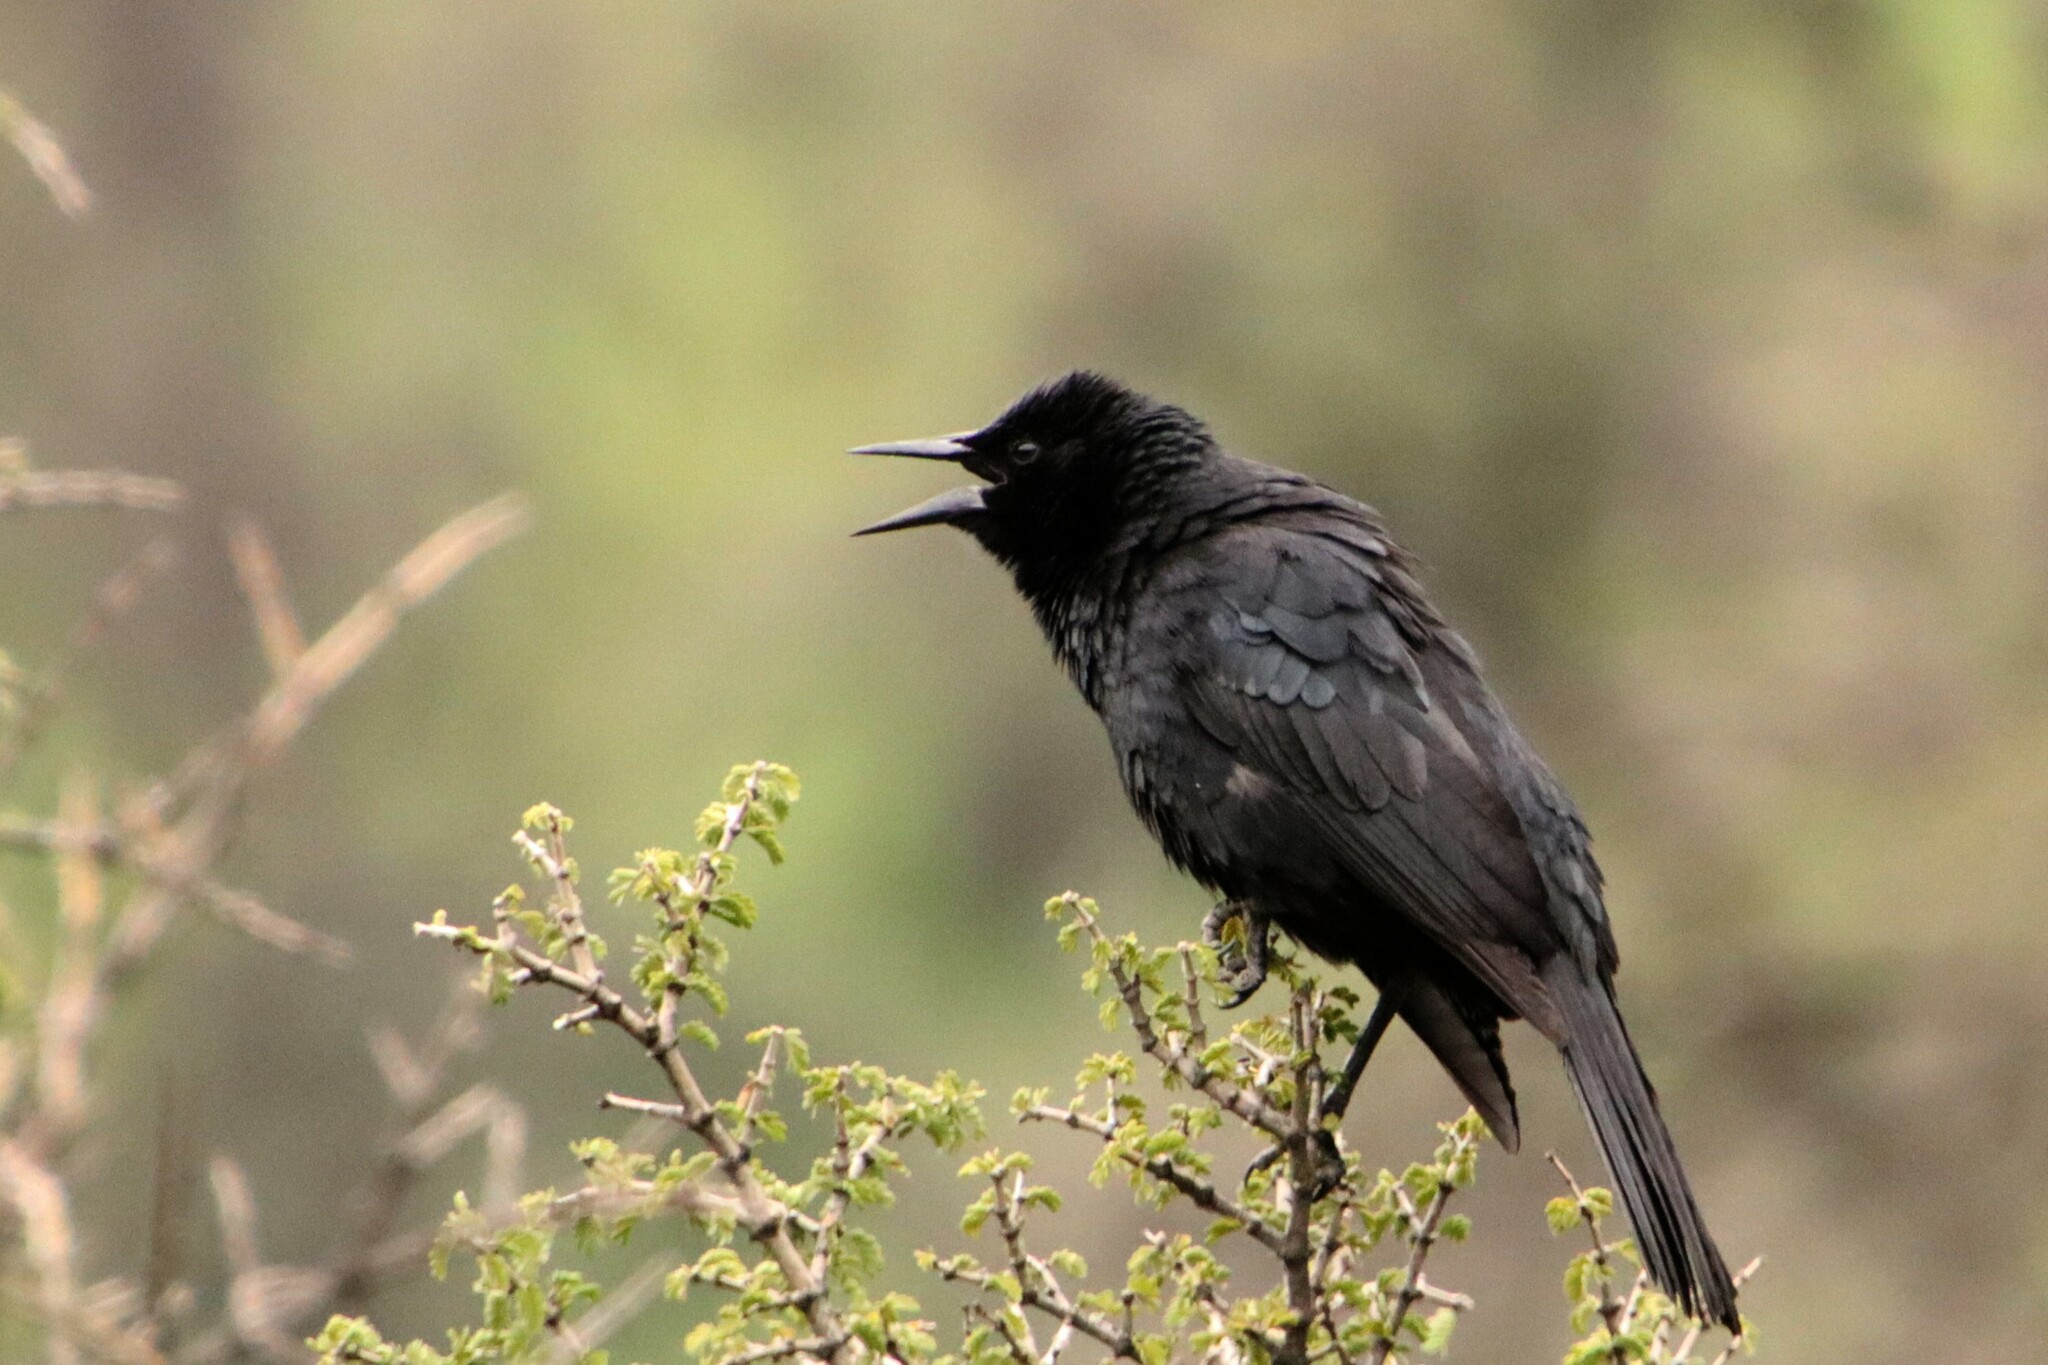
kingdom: Animalia
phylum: Chordata
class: Aves
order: Passeriformes
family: Icteridae
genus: Curaeus
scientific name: Curaeus curaeus
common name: Austral blackbird
